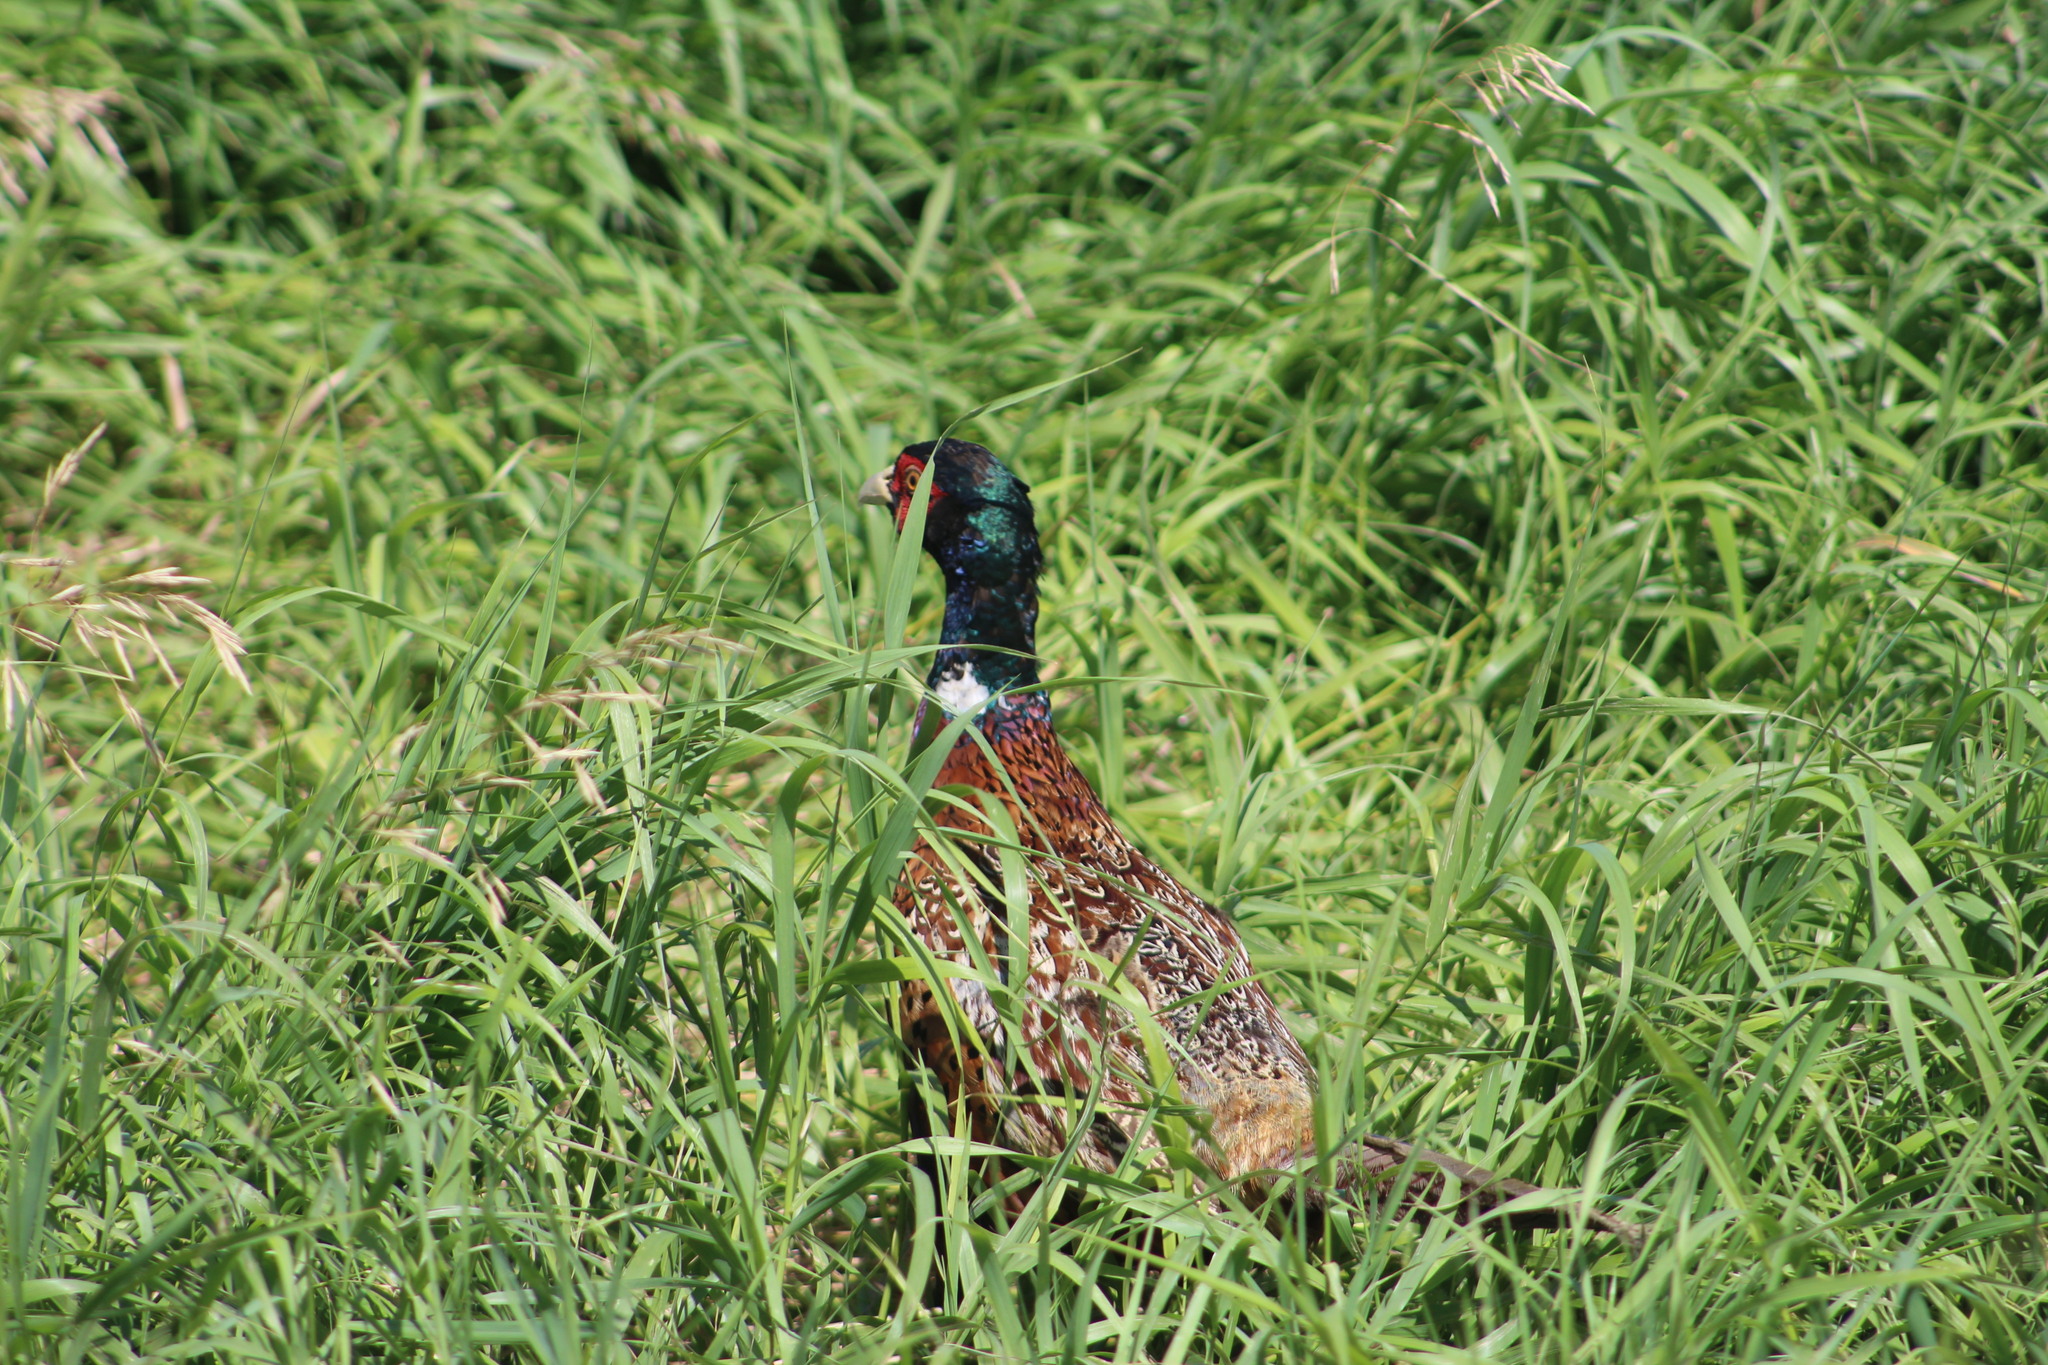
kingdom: Animalia
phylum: Chordata
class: Aves
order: Galliformes
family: Phasianidae
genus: Phasianus
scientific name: Phasianus colchicus
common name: Common pheasant
